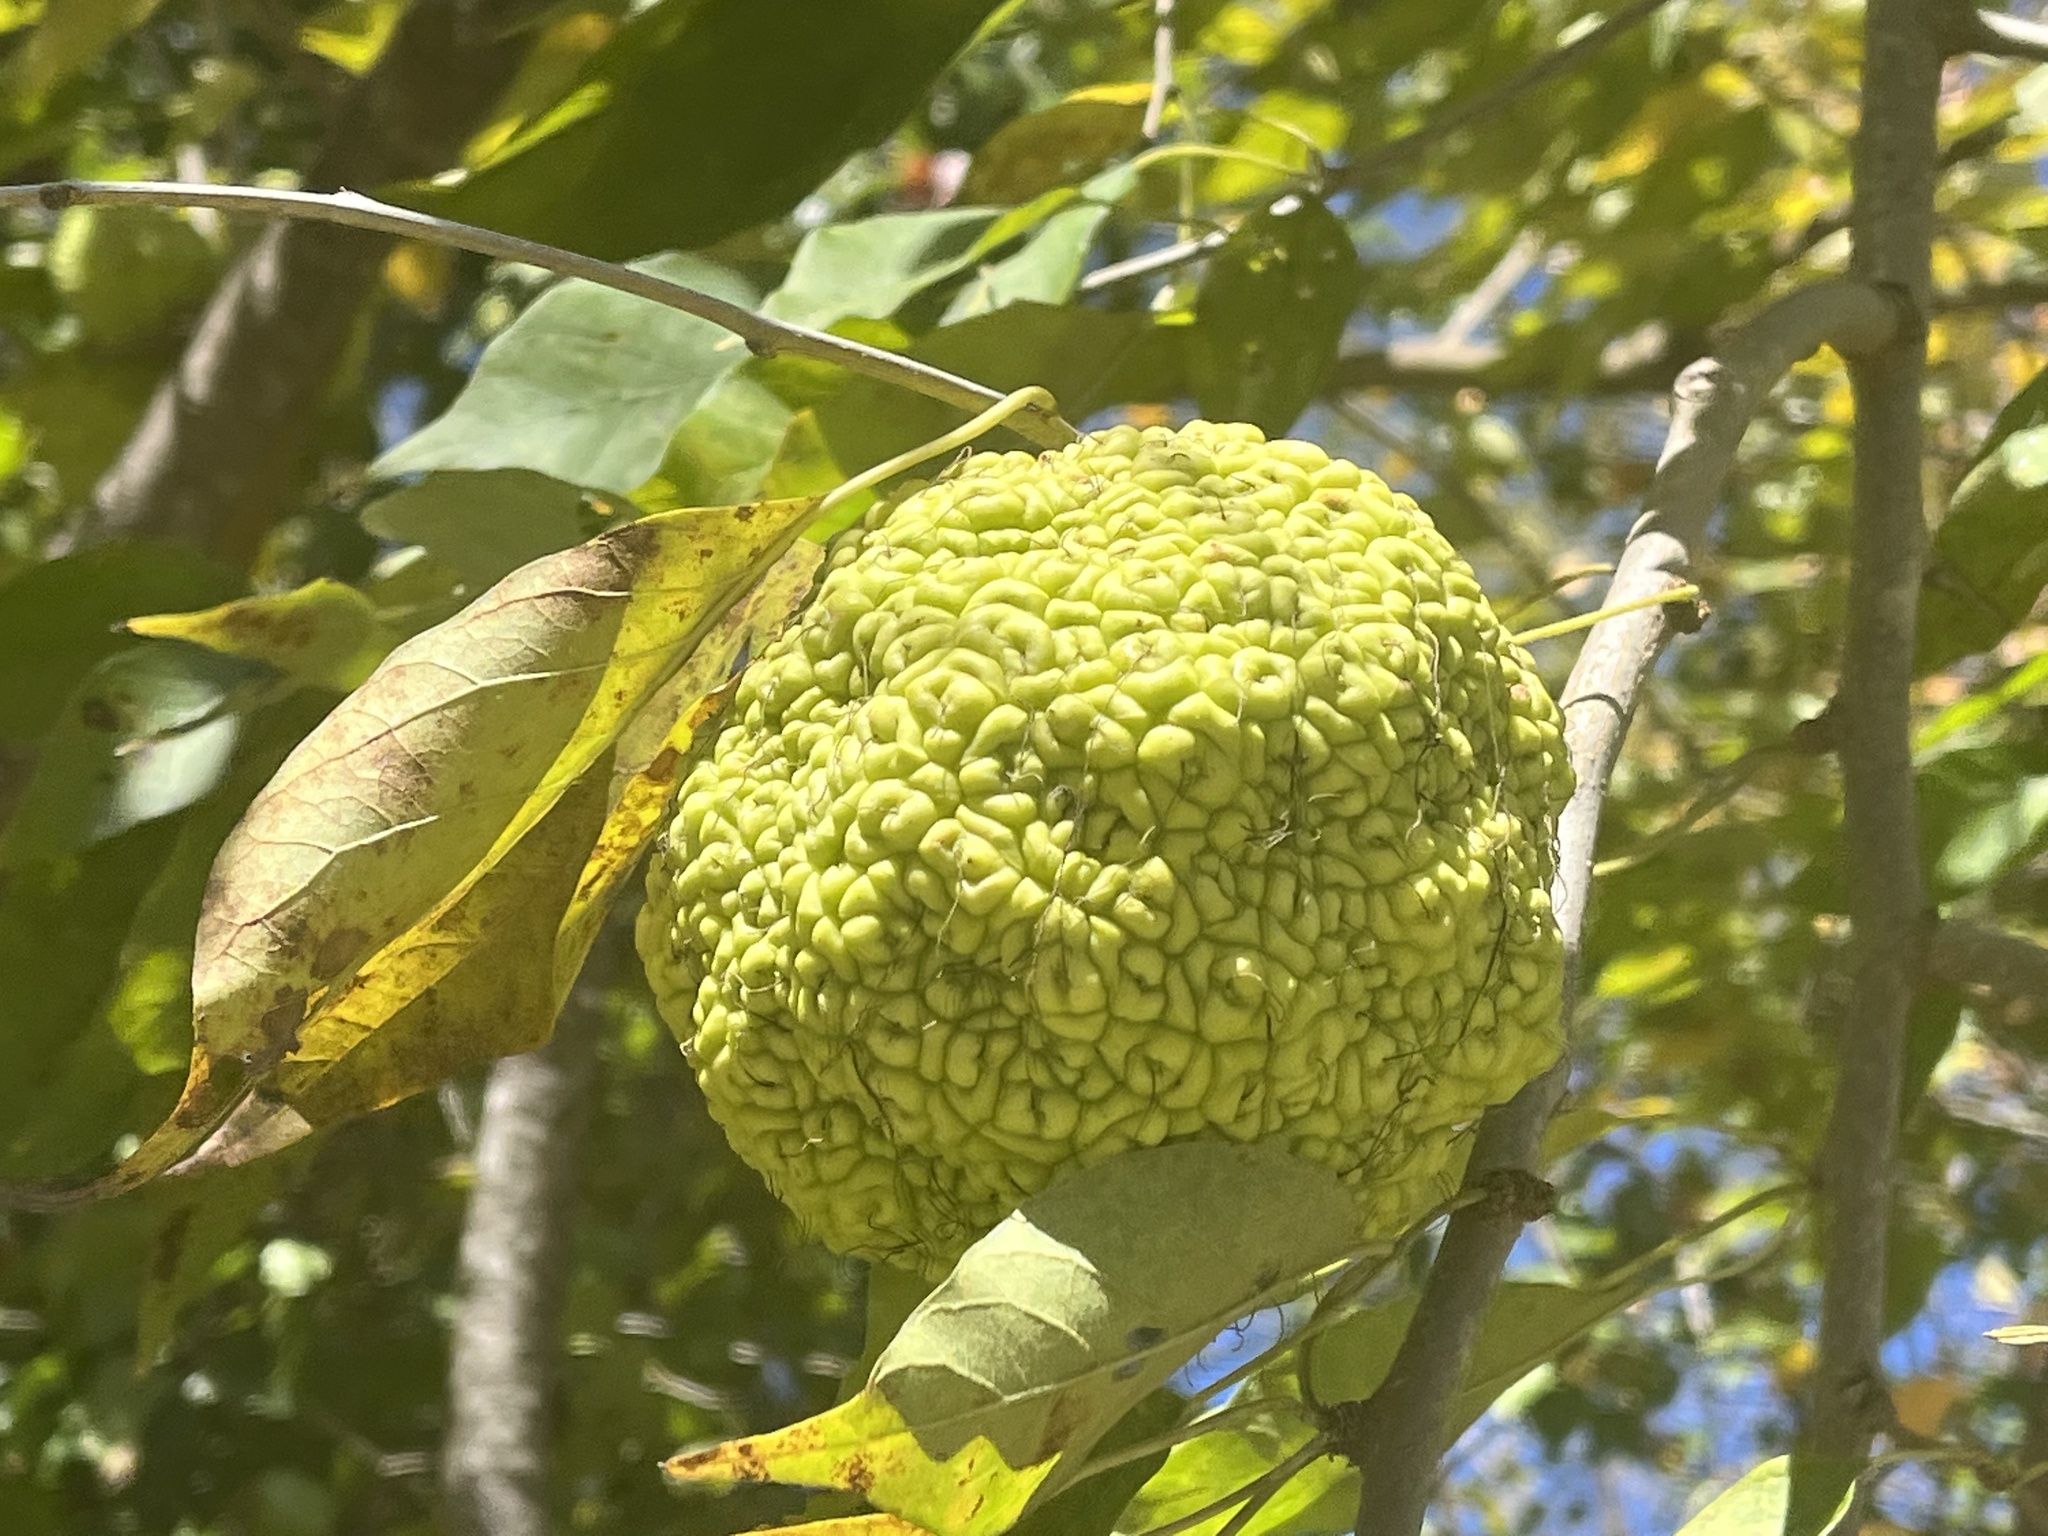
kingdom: Plantae
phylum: Tracheophyta
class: Magnoliopsida
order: Rosales
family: Moraceae
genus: Maclura
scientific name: Maclura pomifera
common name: Osage-orange
